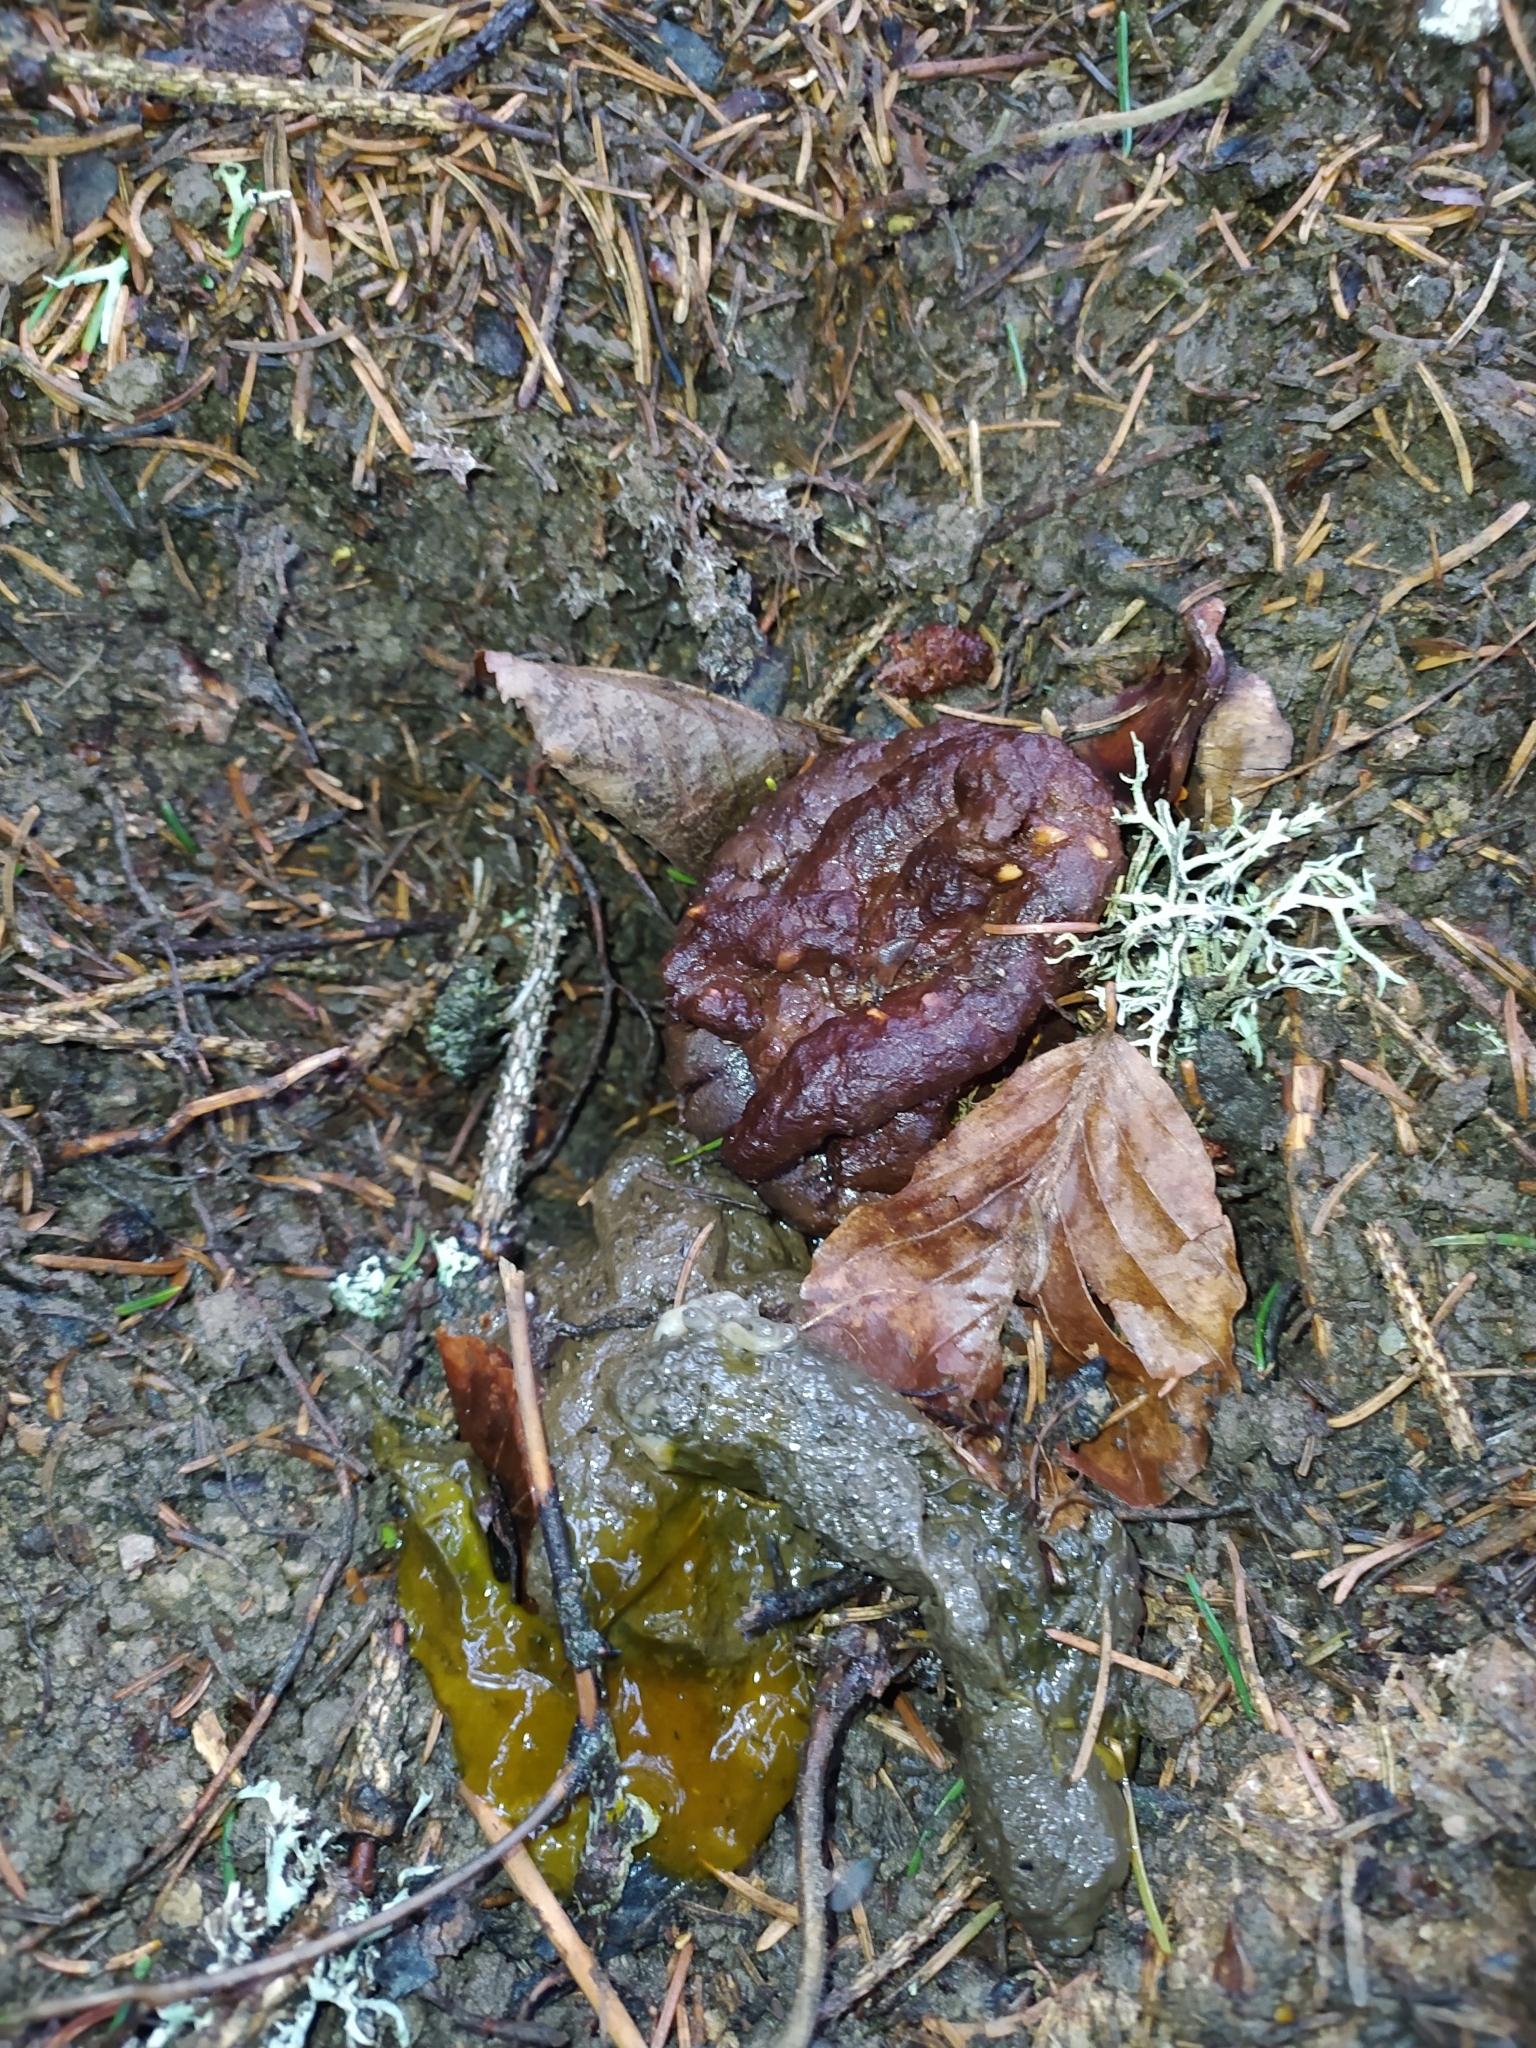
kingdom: Animalia
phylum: Chordata
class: Mammalia
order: Carnivora
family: Mustelidae
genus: Meles
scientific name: Meles meles
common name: Eurasian badger
